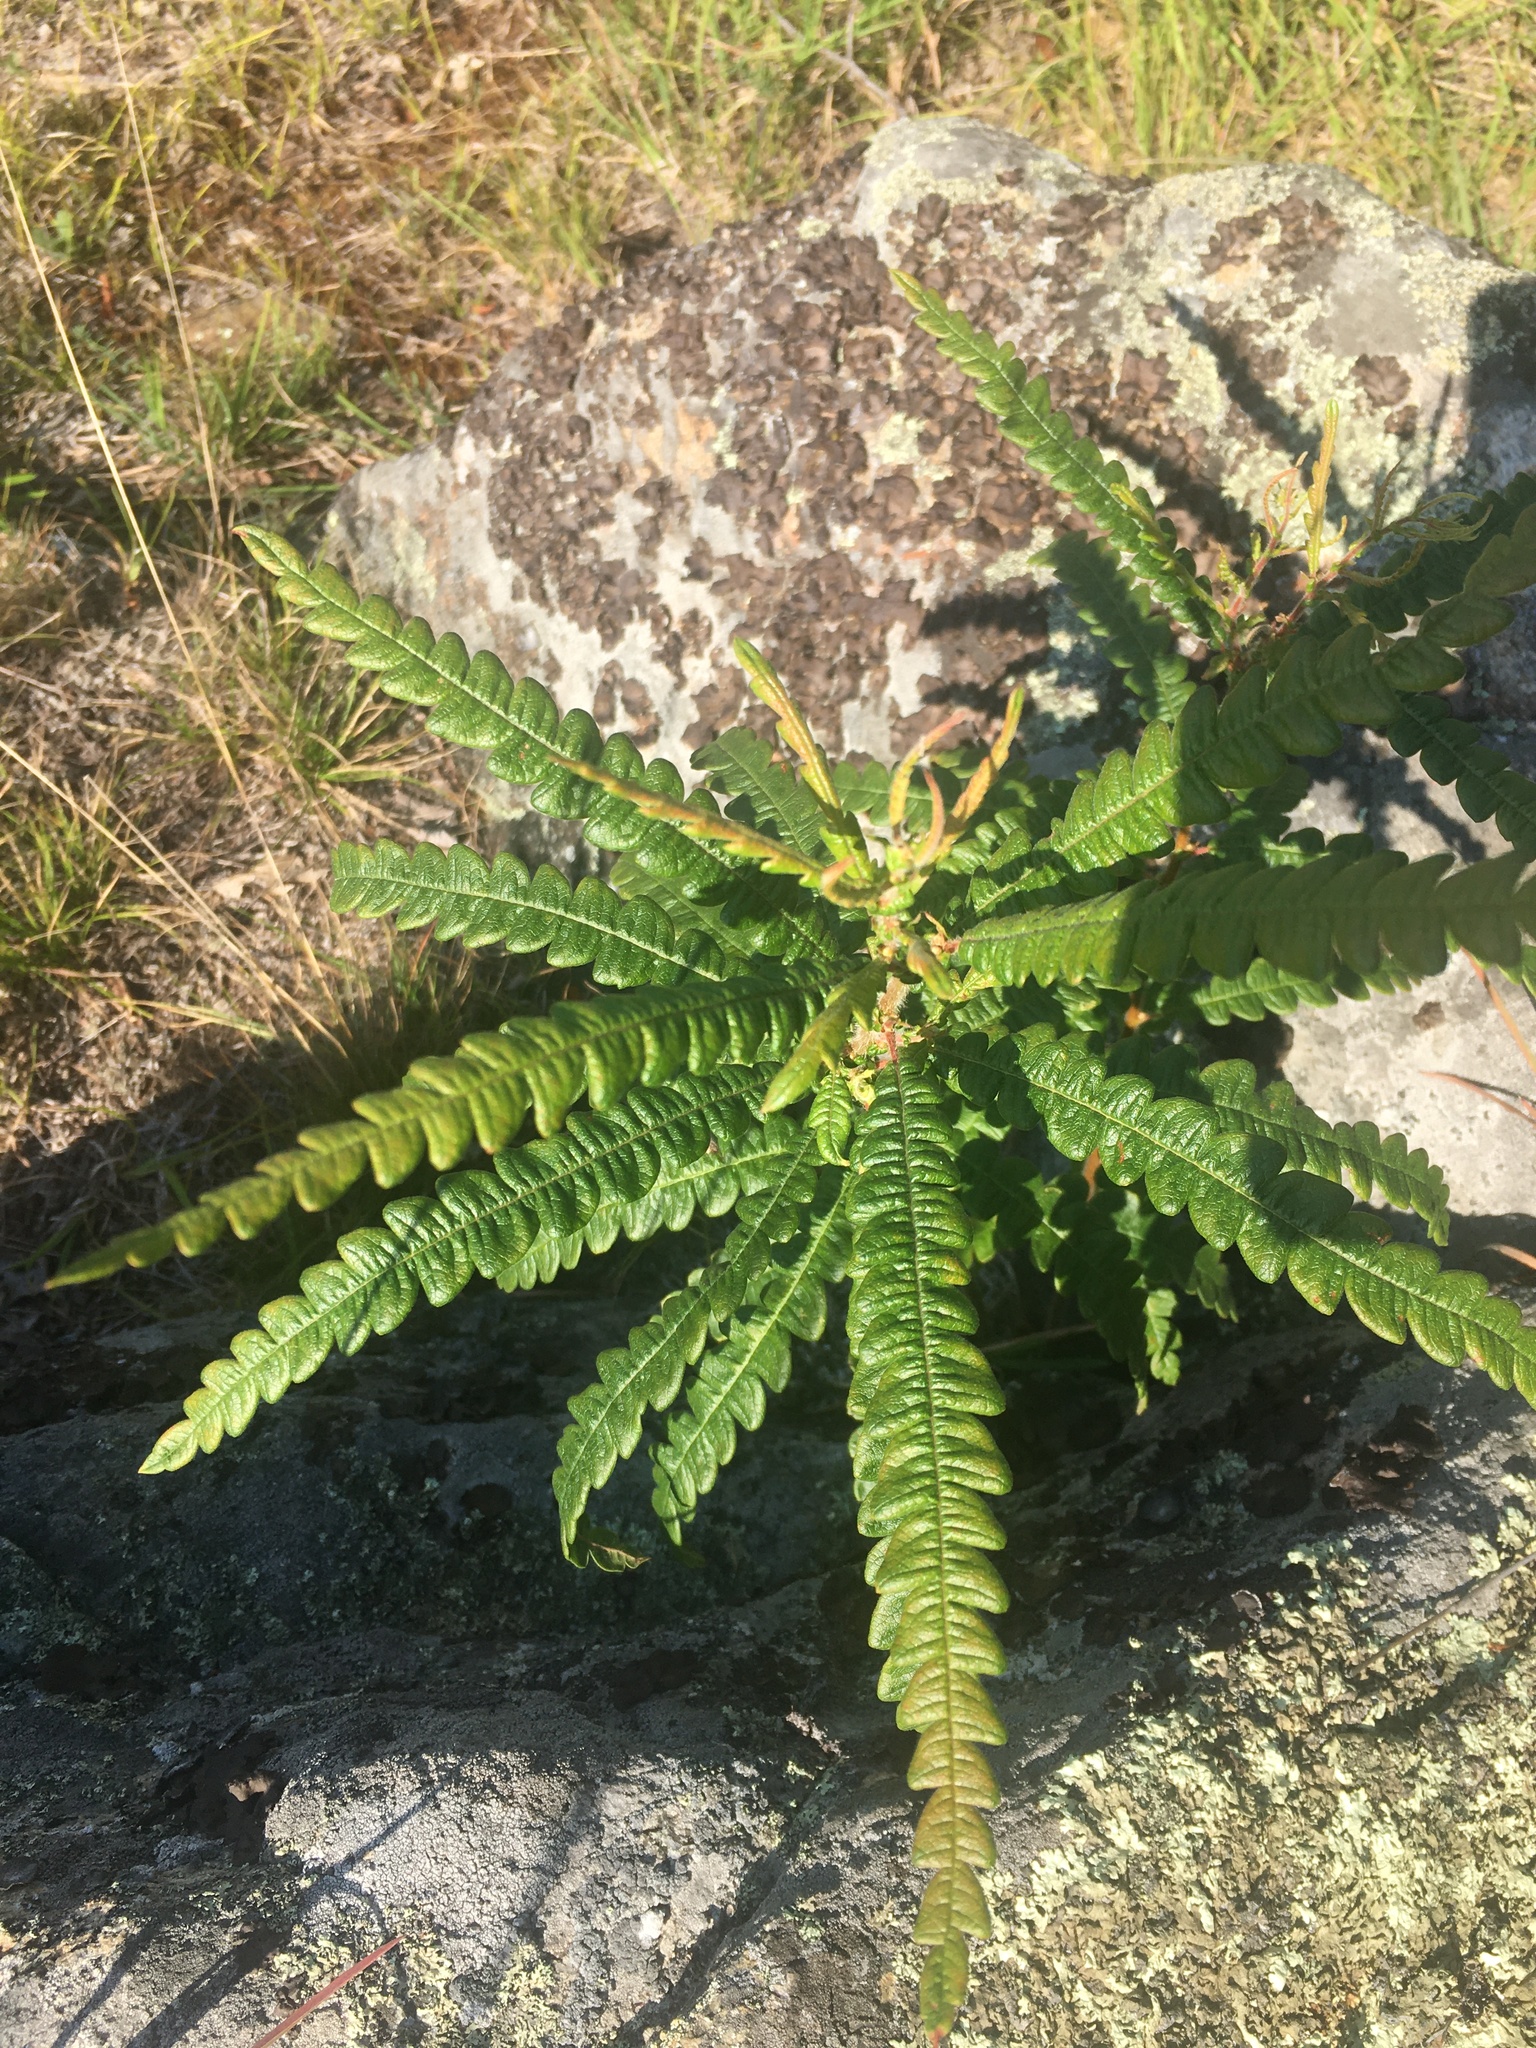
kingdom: Plantae
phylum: Tracheophyta
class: Magnoliopsida
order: Fagales
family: Myricaceae
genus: Comptonia
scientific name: Comptonia peregrina
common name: Sweet-fern
